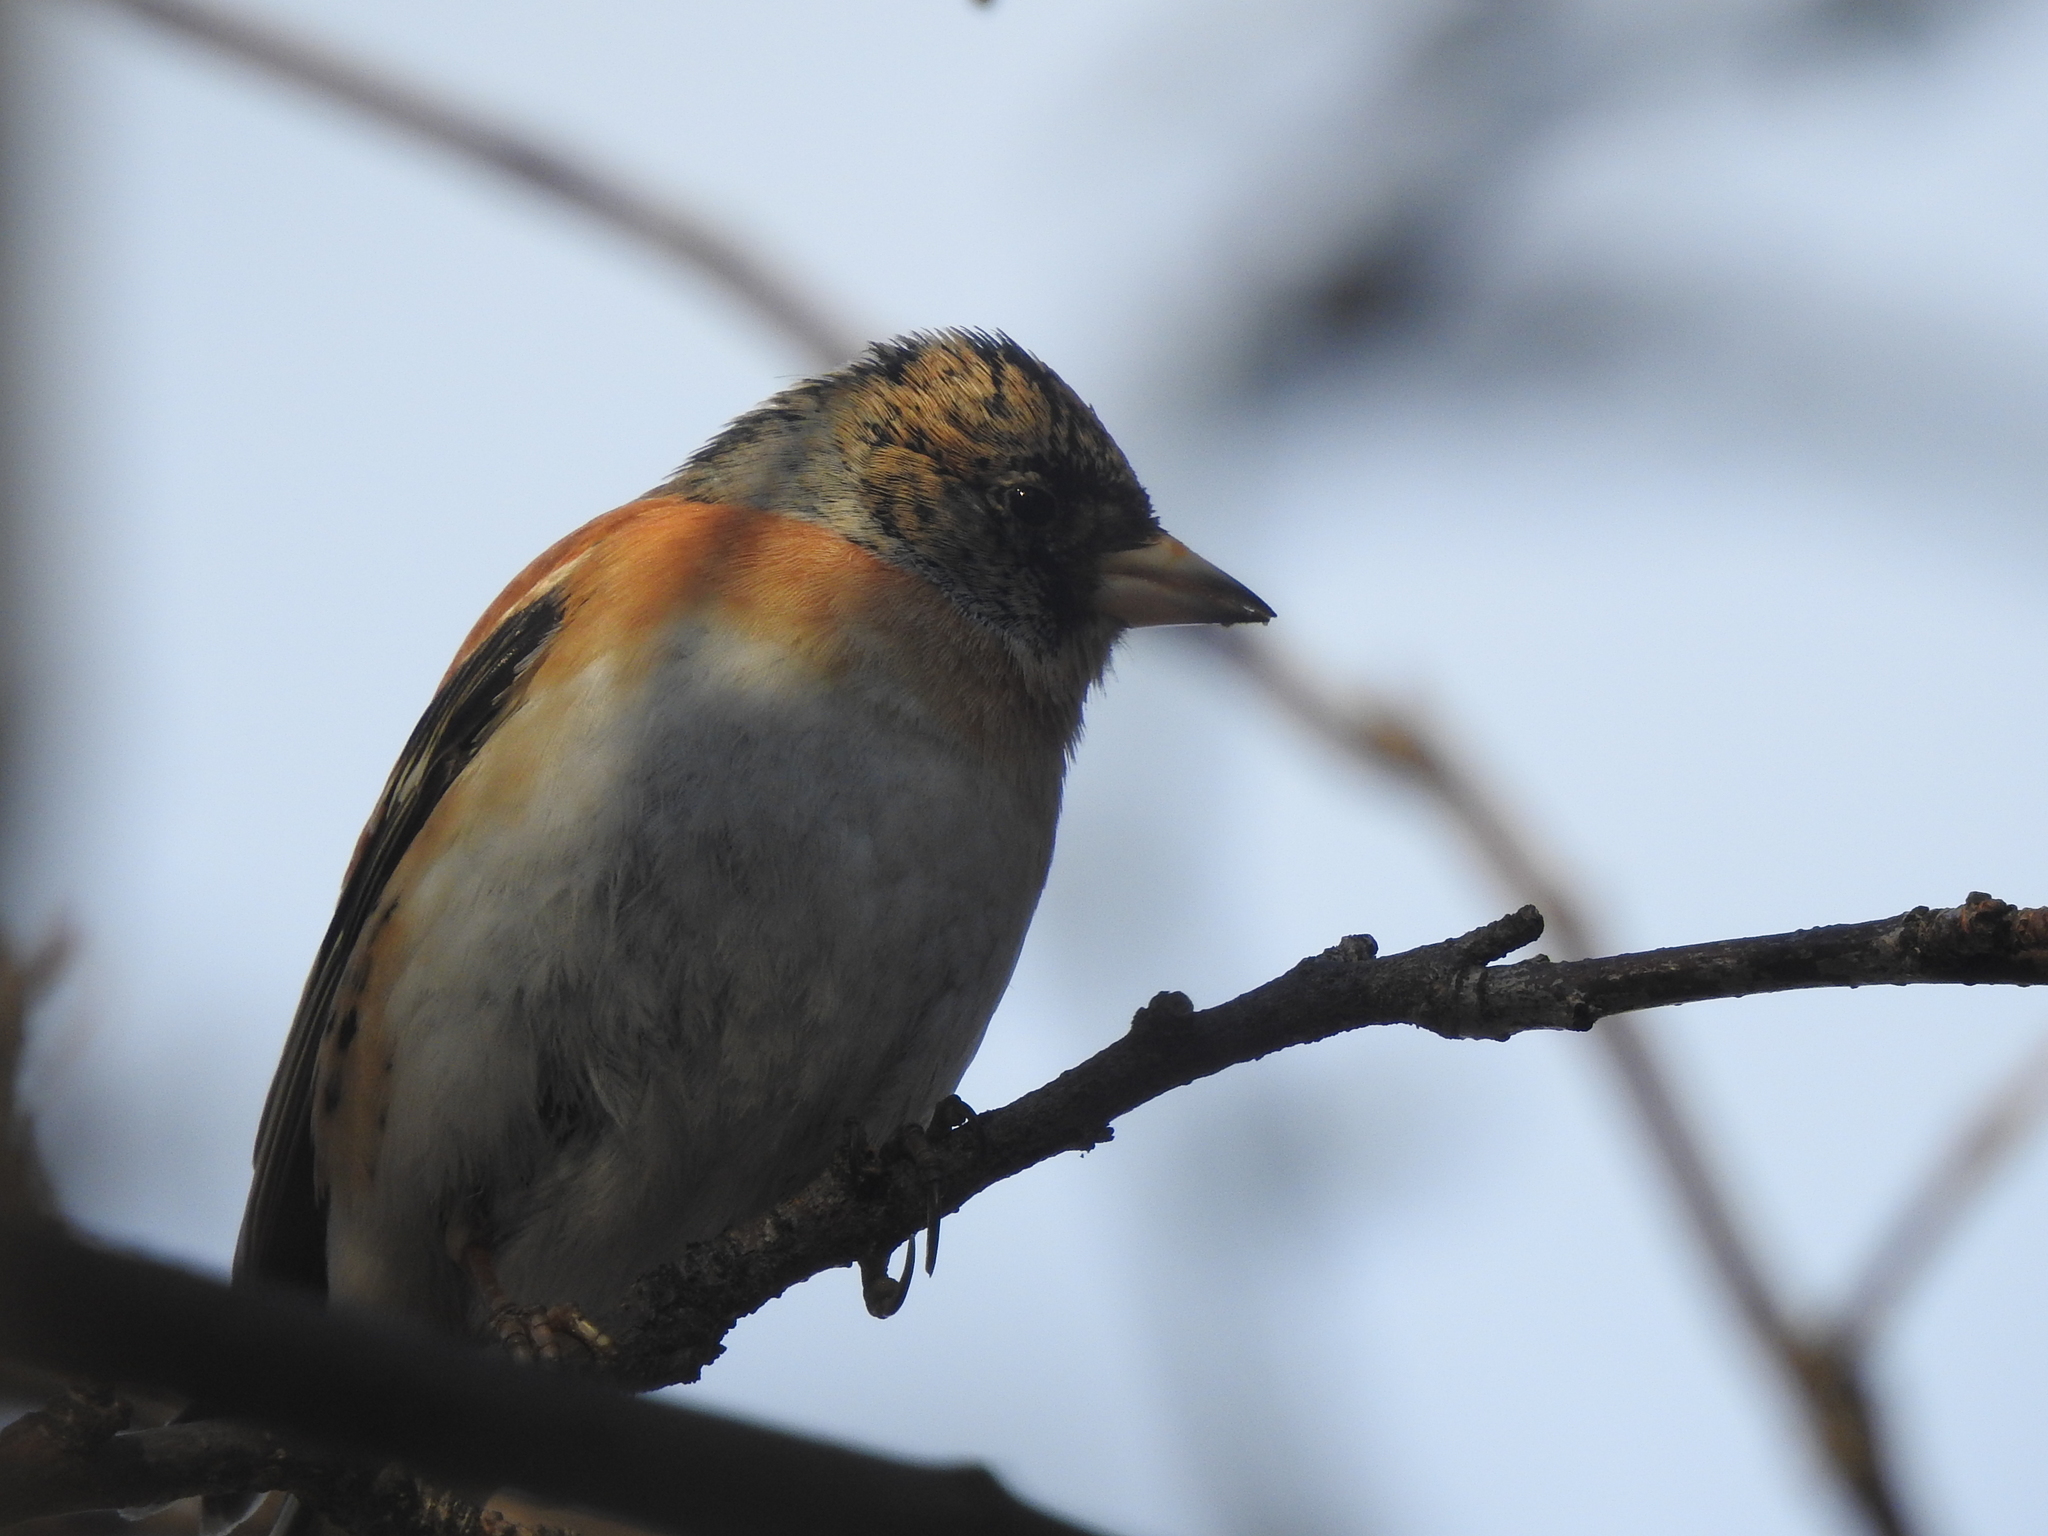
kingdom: Animalia
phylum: Chordata
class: Aves
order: Passeriformes
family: Fringillidae
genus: Fringilla
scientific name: Fringilla montifringilla
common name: Brambling
